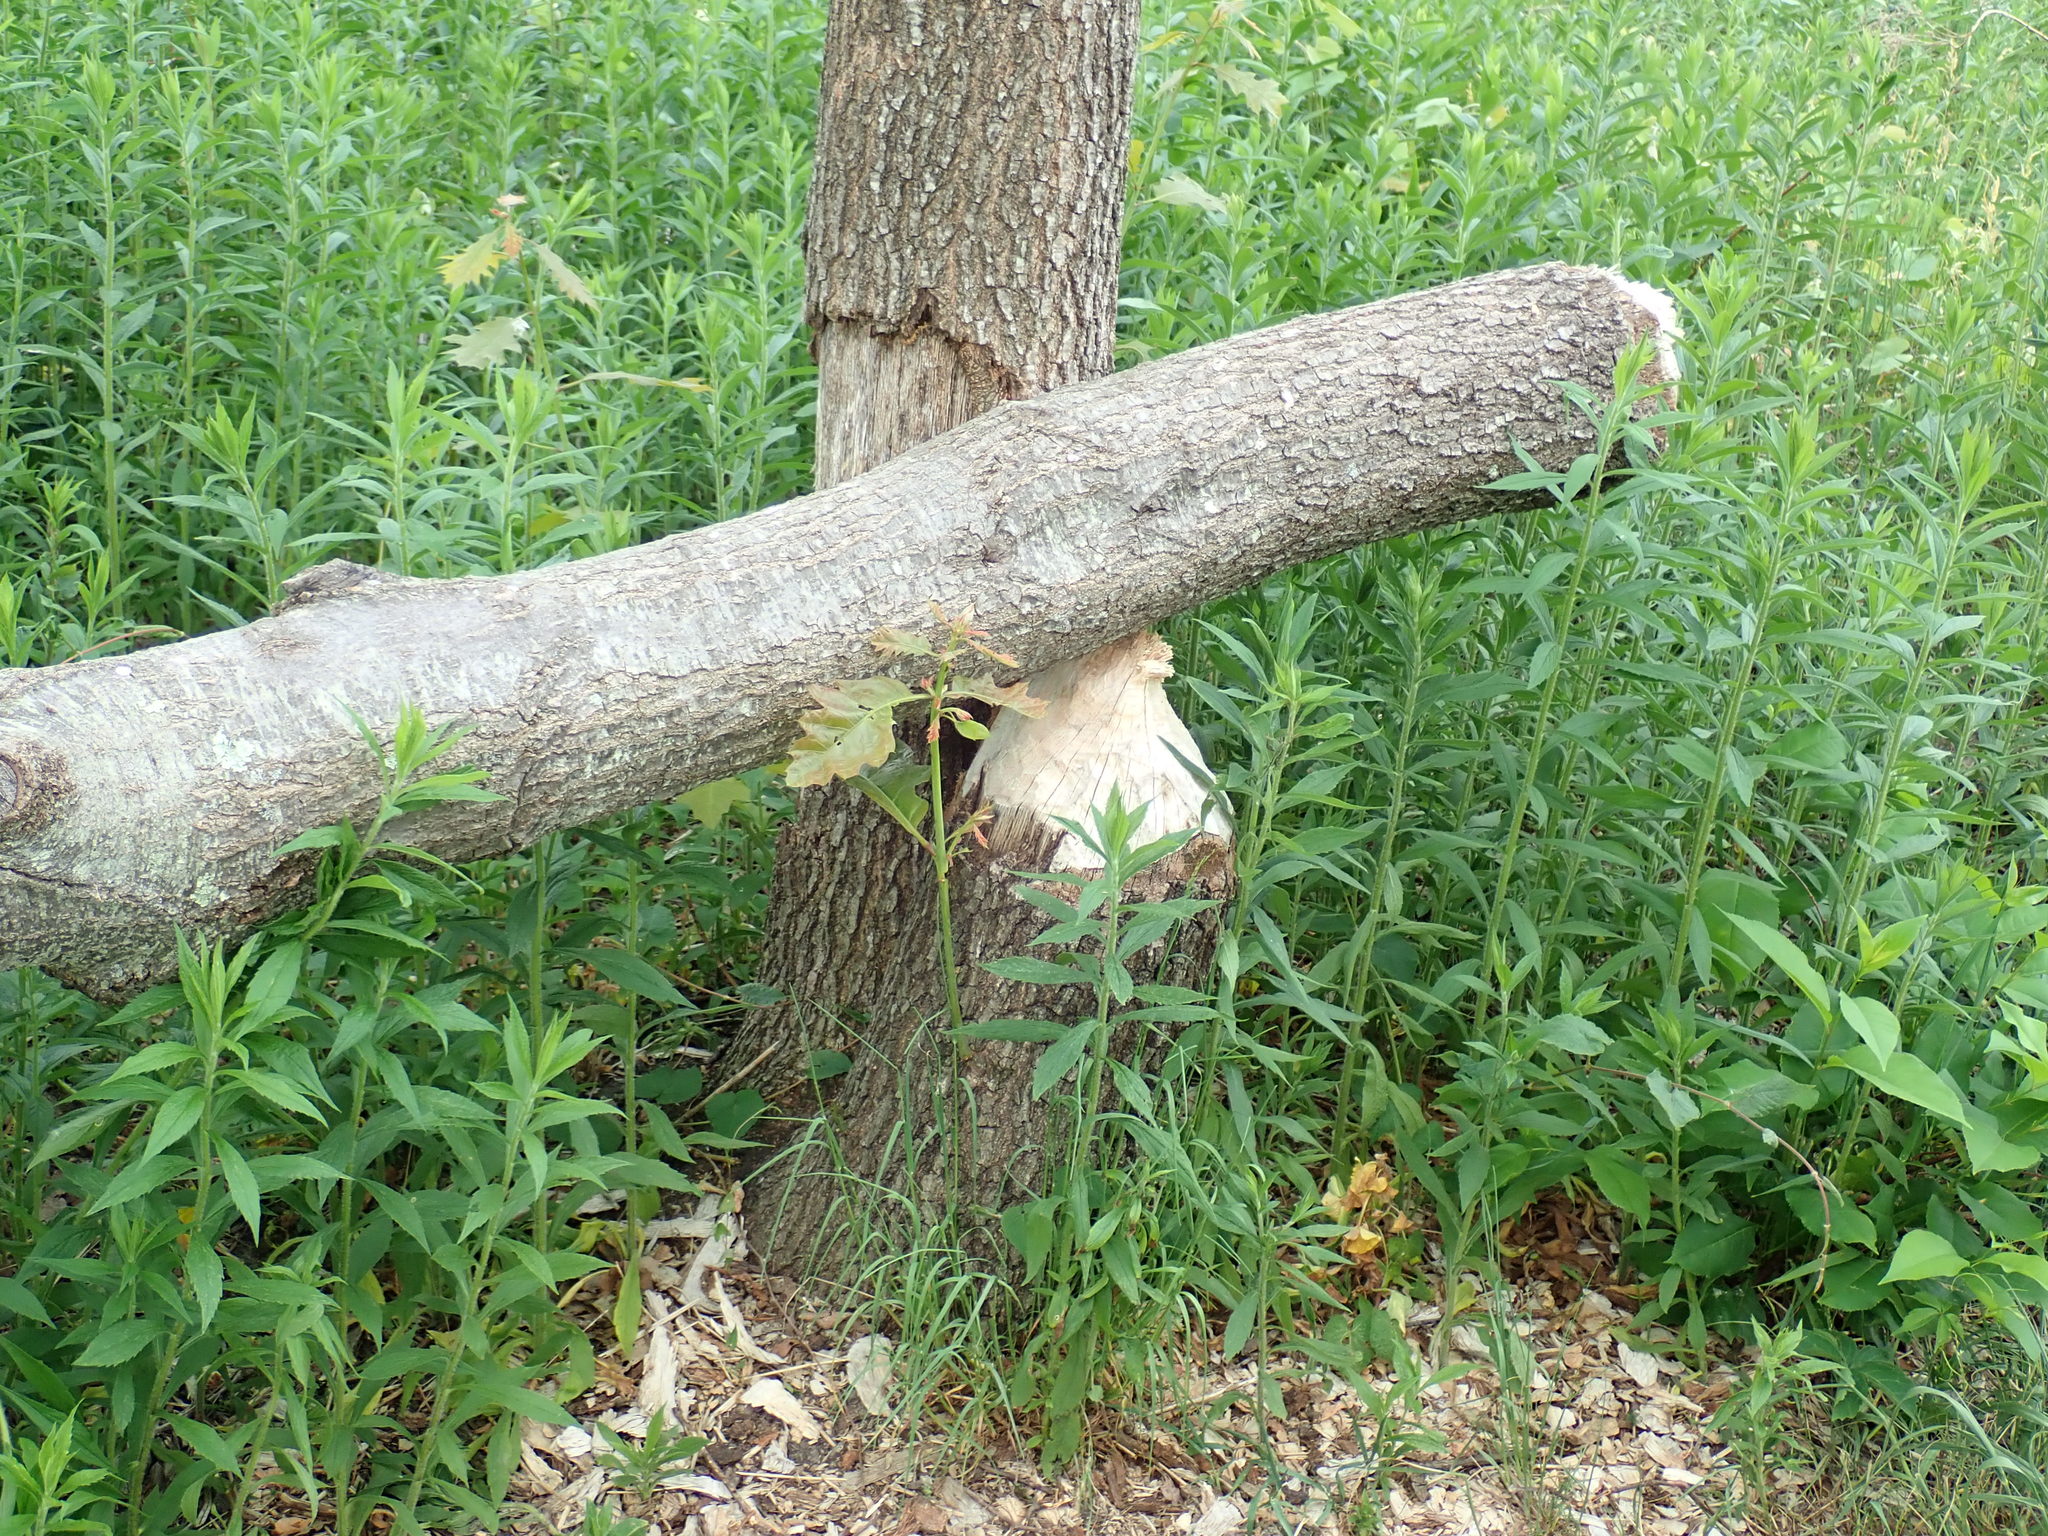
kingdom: Animalia
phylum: Chordata
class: Mammalia
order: Rodentia
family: Castoridae
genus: Castor
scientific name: Castor canadensis
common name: American beaver
